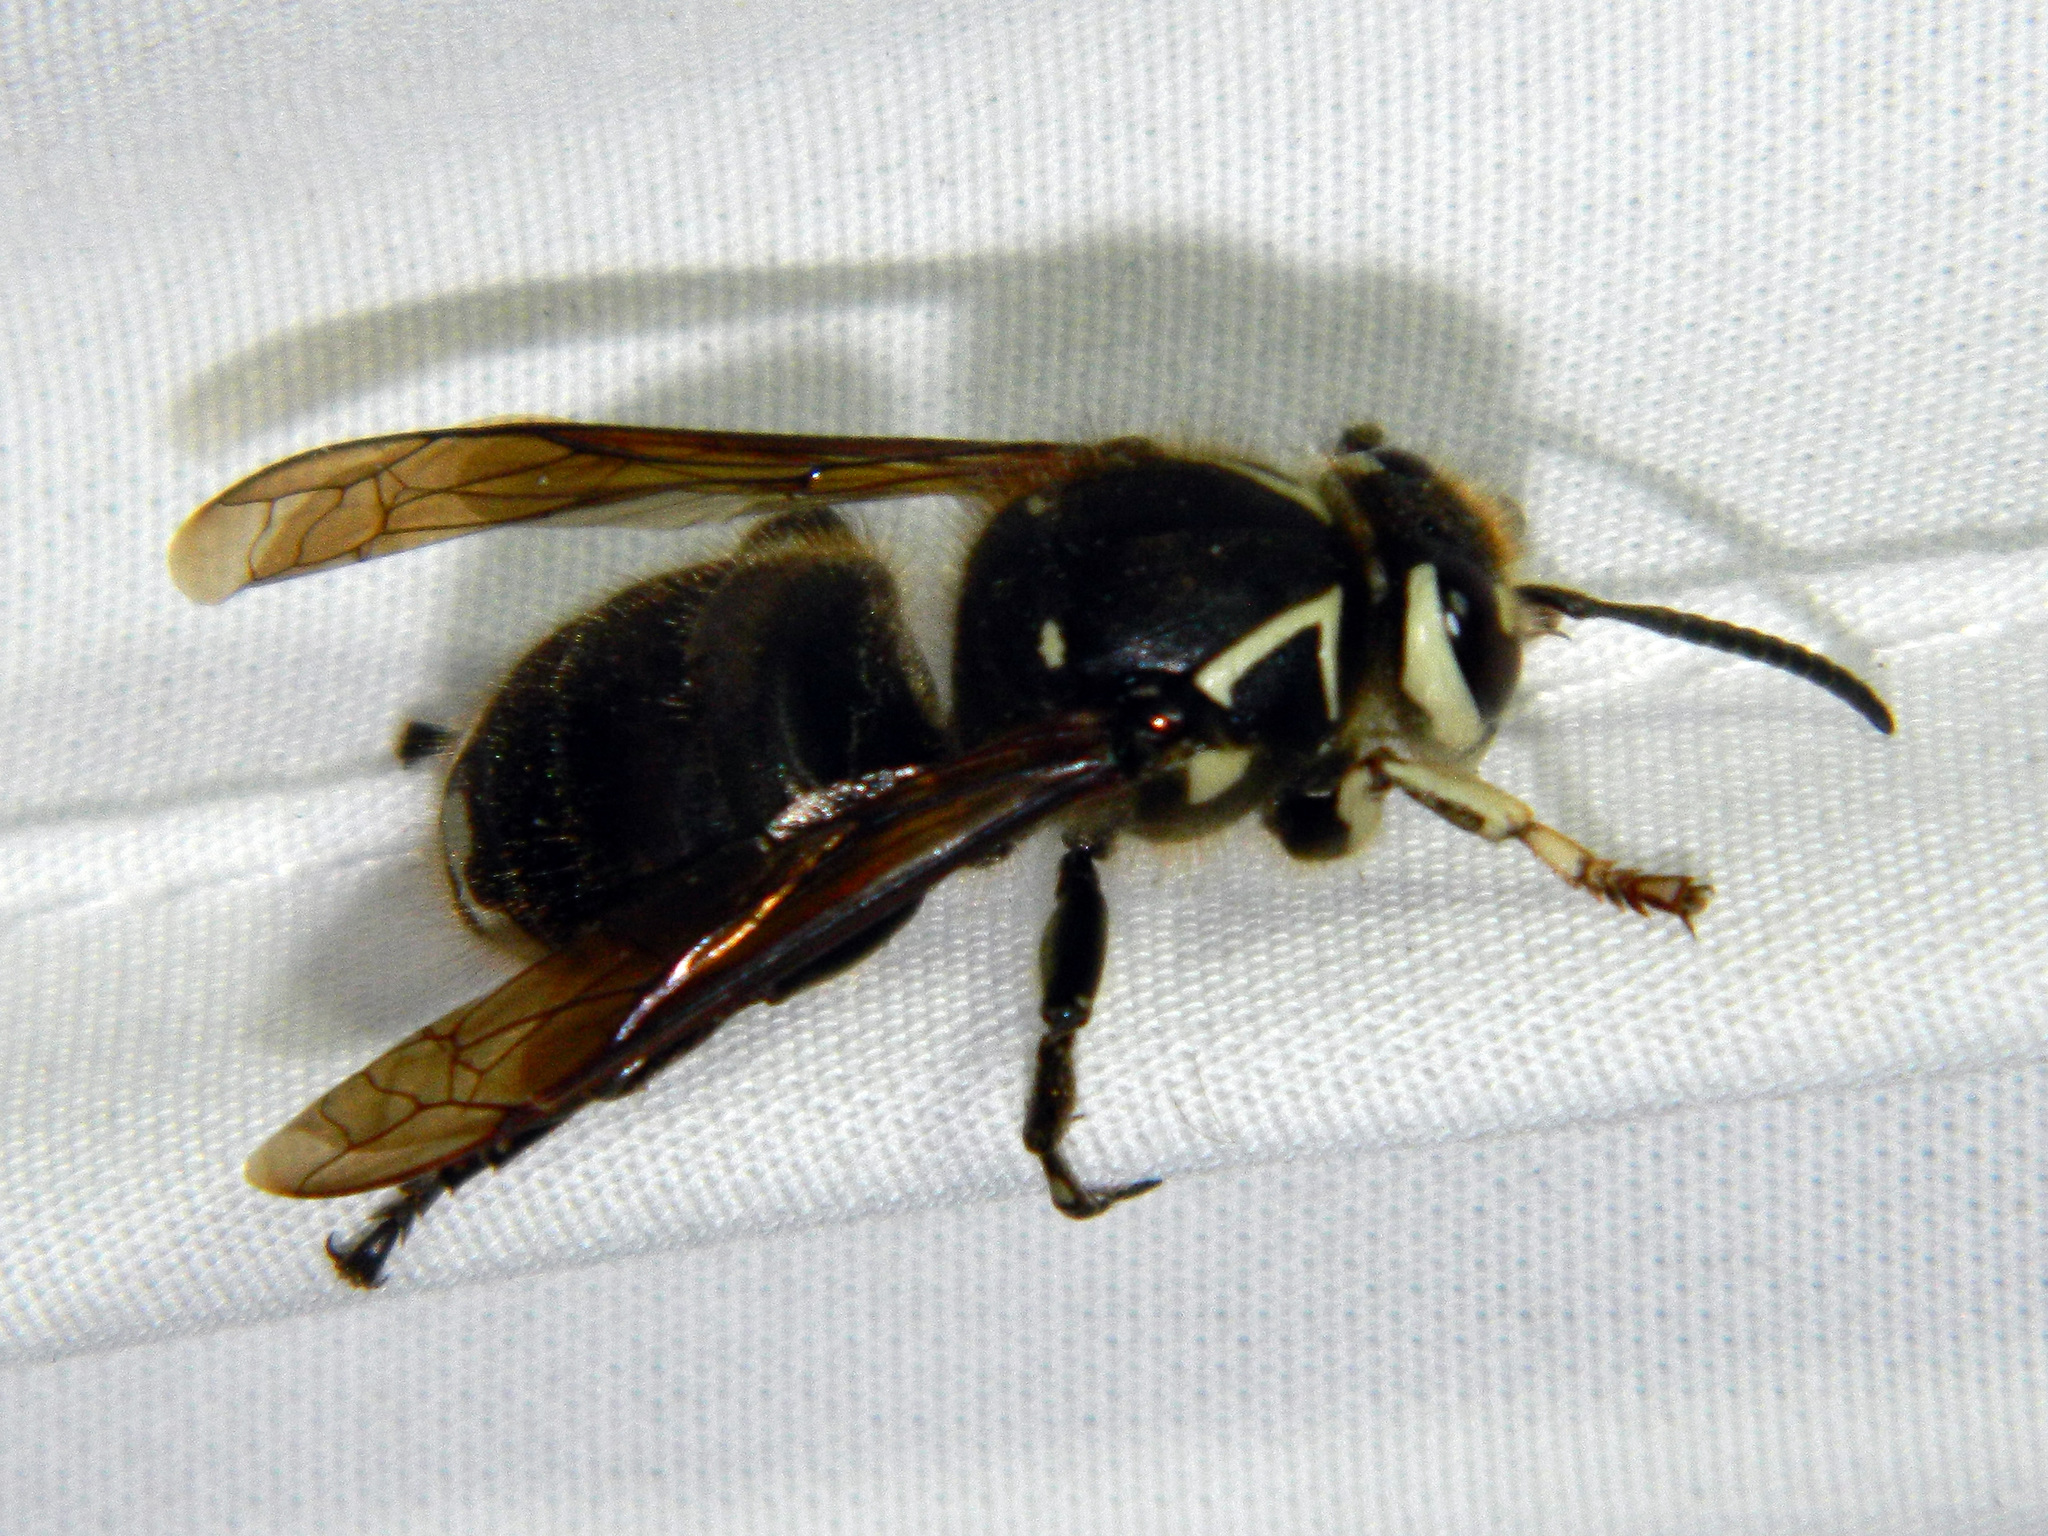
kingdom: Animalia
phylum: Arthropoda
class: Insecta
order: Hymenoptera
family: Vespidae
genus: Dolichovespula
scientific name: Dolichovespula maculata
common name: Bald-faced hornet
